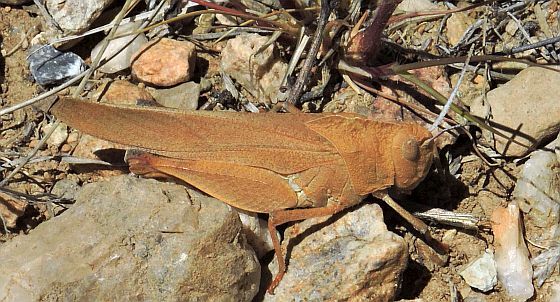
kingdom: Animalia
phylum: Arthropoda
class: Insecta
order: Orthoptera
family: Acrididae
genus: Tomonotus
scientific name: Tomonotus ferruginosus
